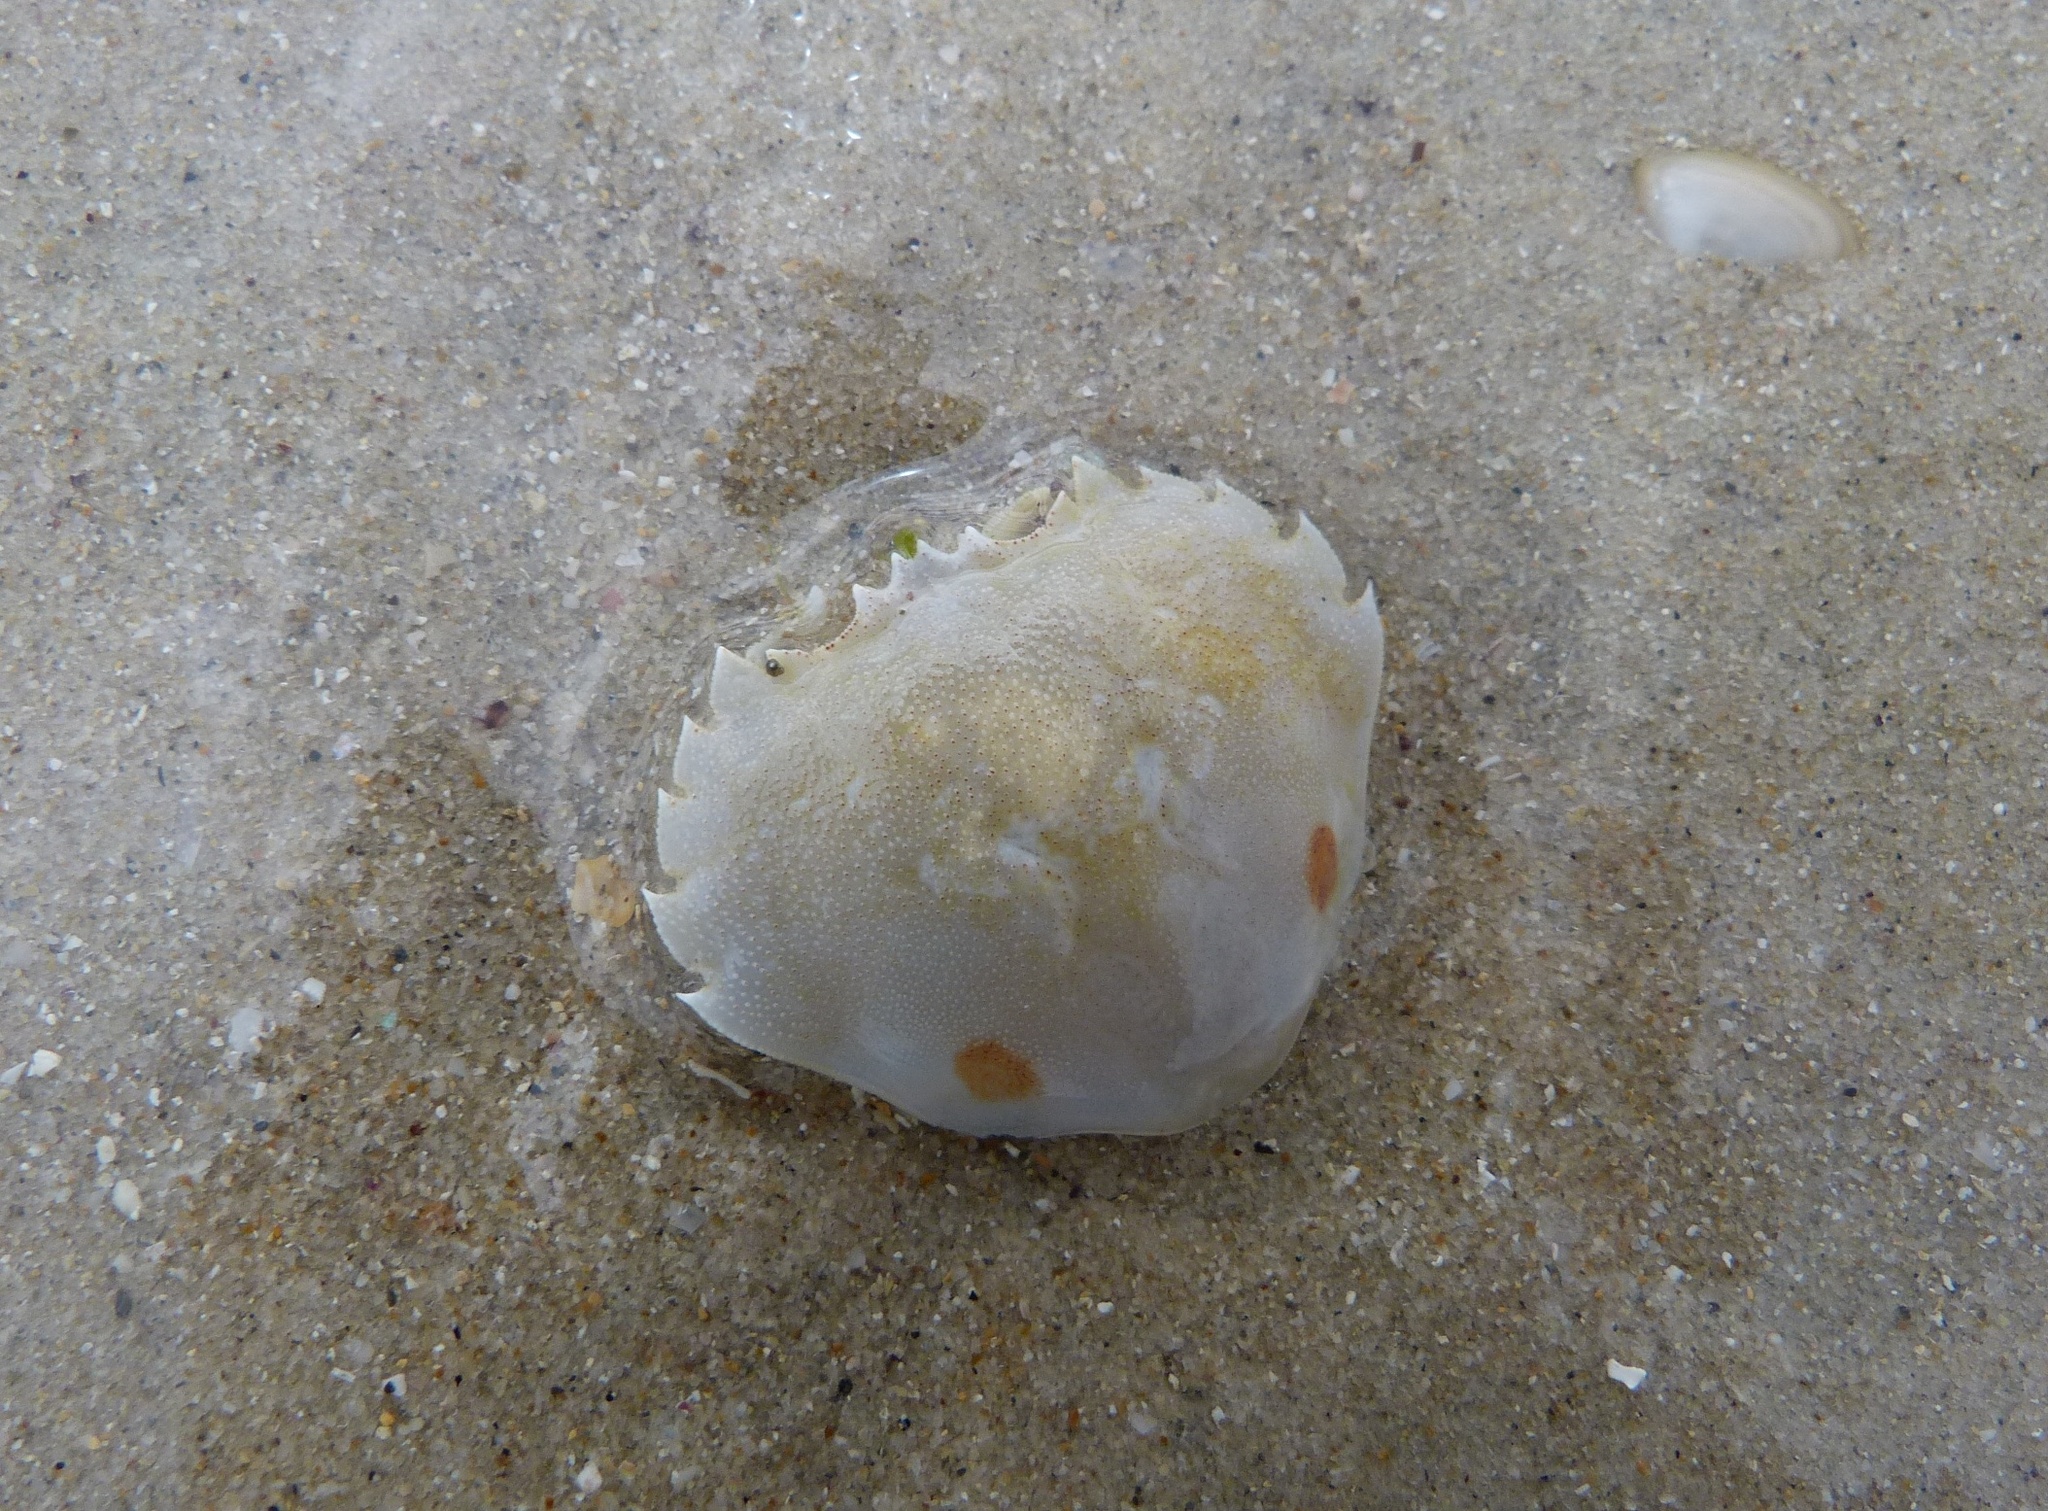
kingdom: Animalia
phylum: Arthropoda
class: Malacostraca
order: Decapoda
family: Ovalipidae
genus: Ovalipes
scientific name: Ovalipes australiensis
